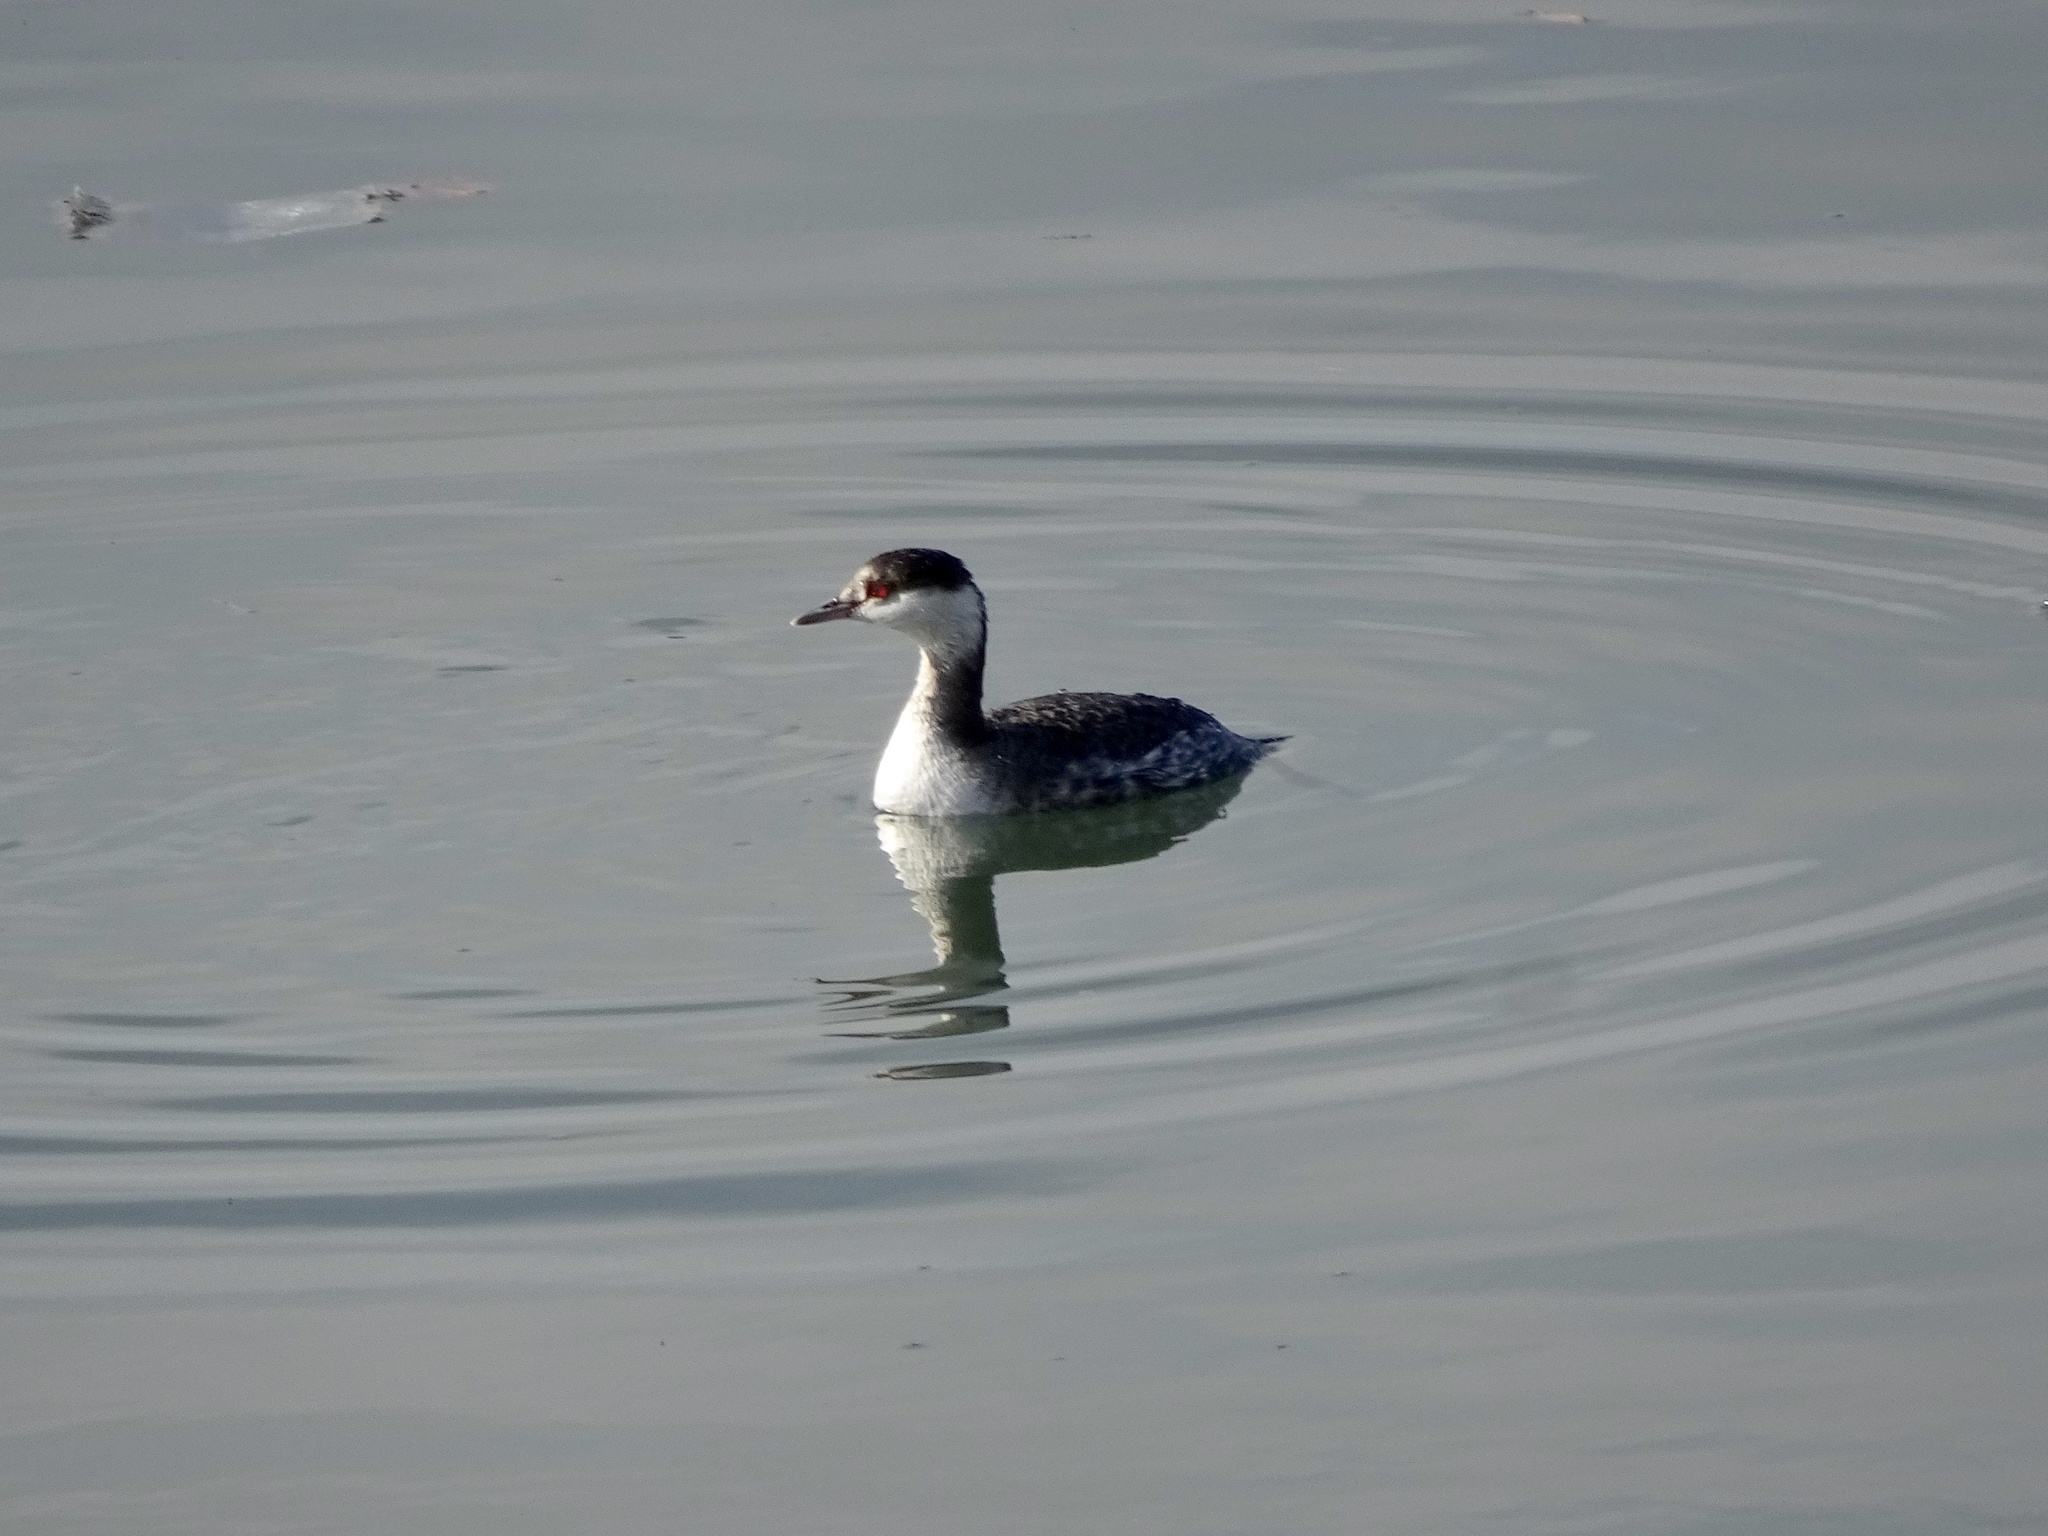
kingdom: Animalia
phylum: Chordata
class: Aves
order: Podicipediformes
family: Podicipedidae
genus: Podiceps
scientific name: Podiceps auritus
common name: Horned grebe
